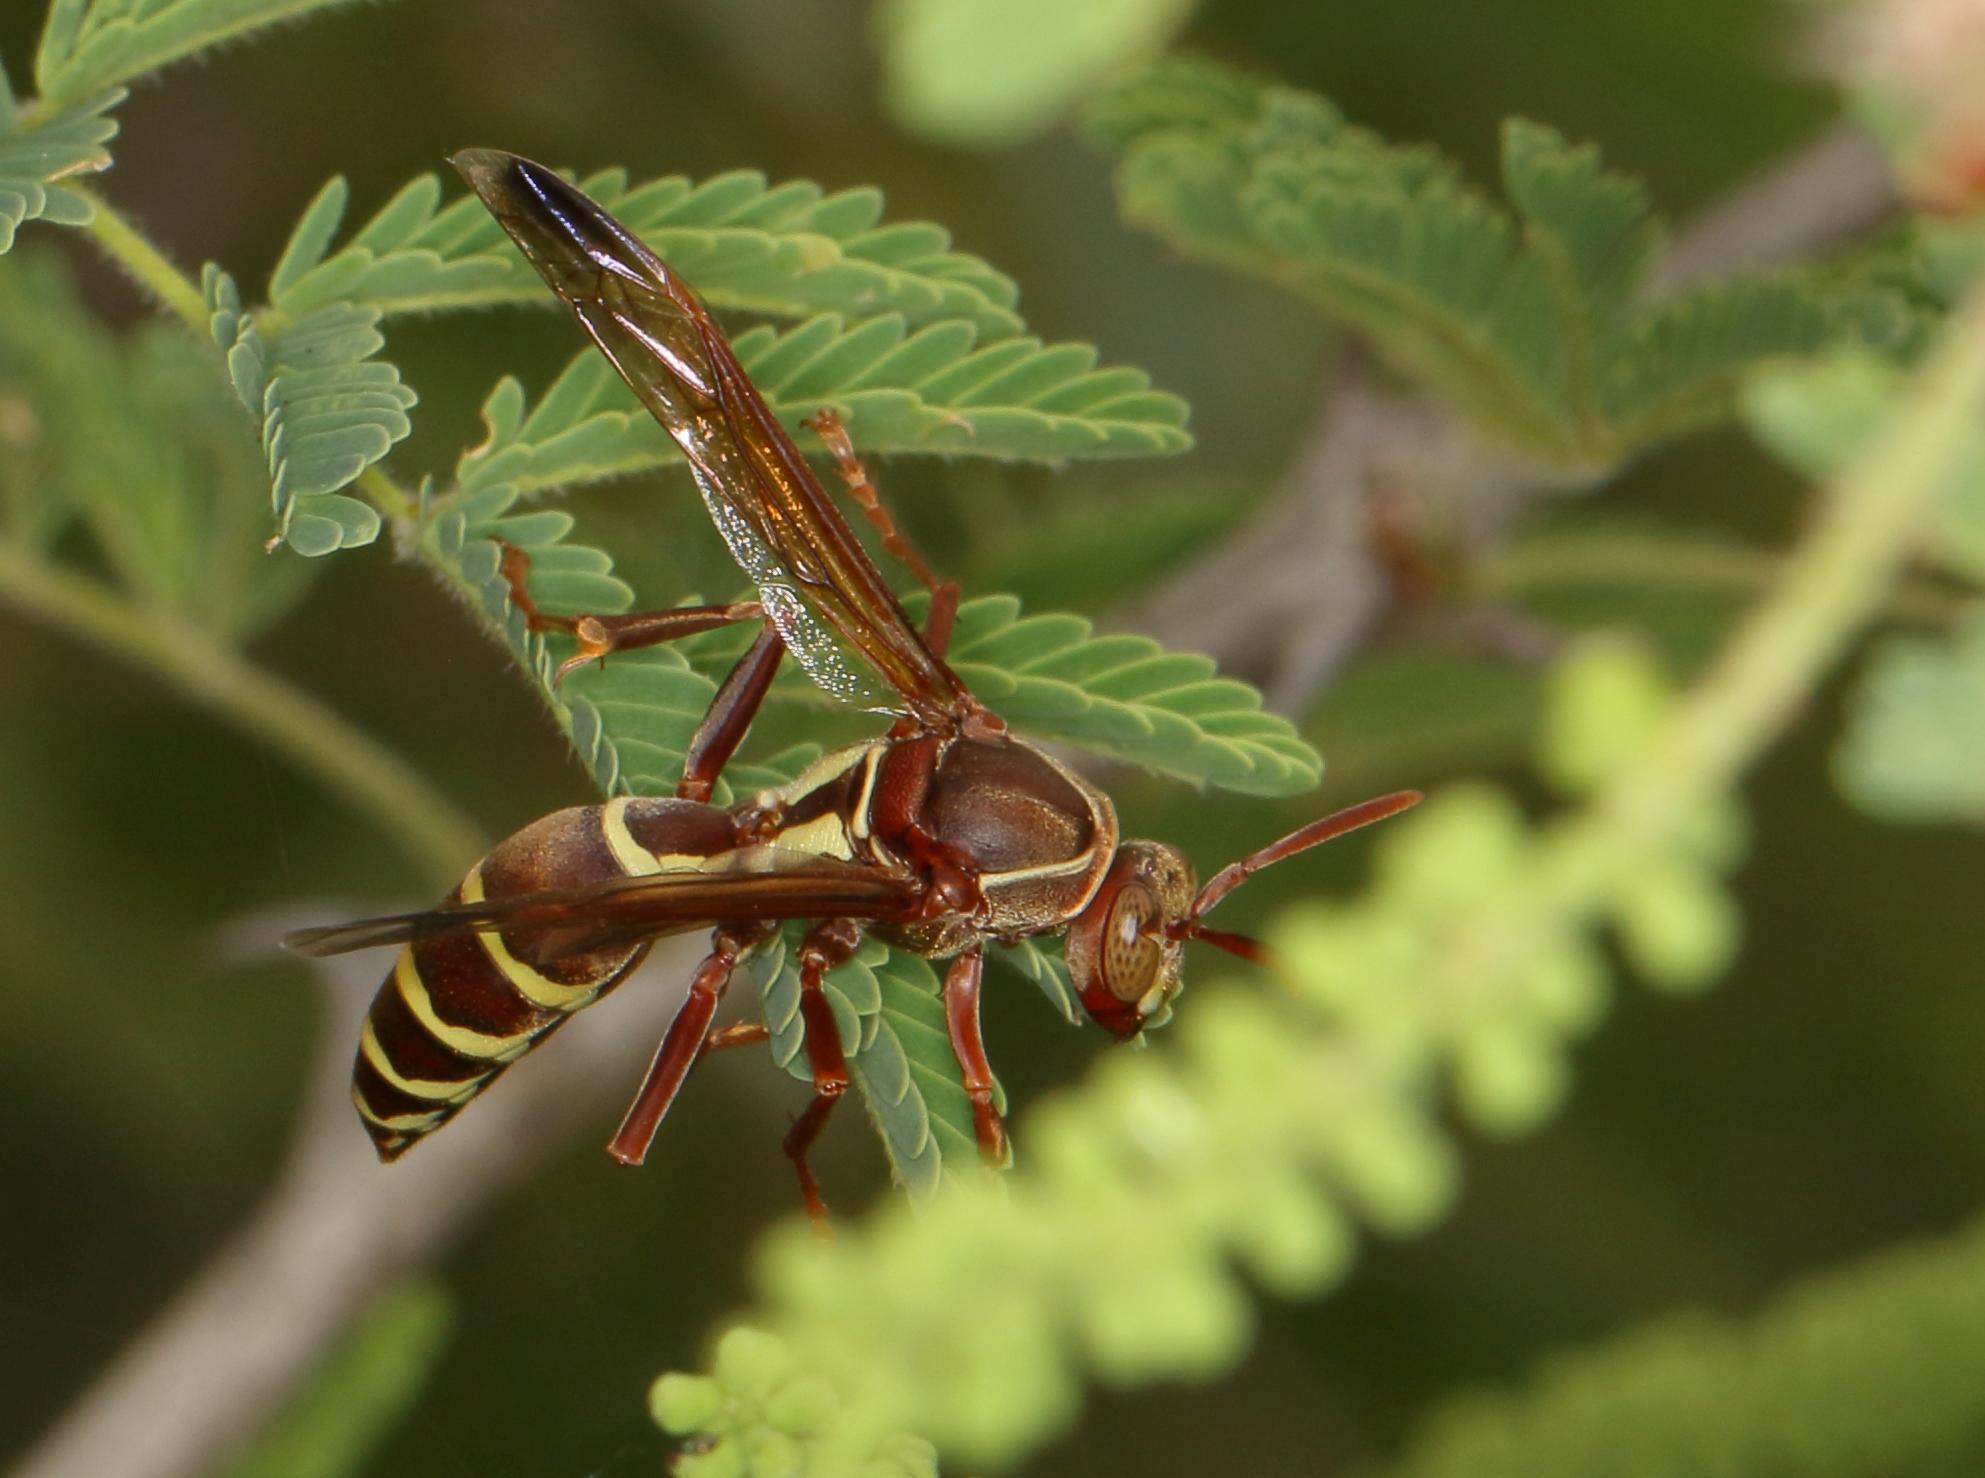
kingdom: Animalia
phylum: Arthropoda
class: Insecta
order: Hymenoptera
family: Eumenidae
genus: Polistes
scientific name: Polistes fastidiosus
